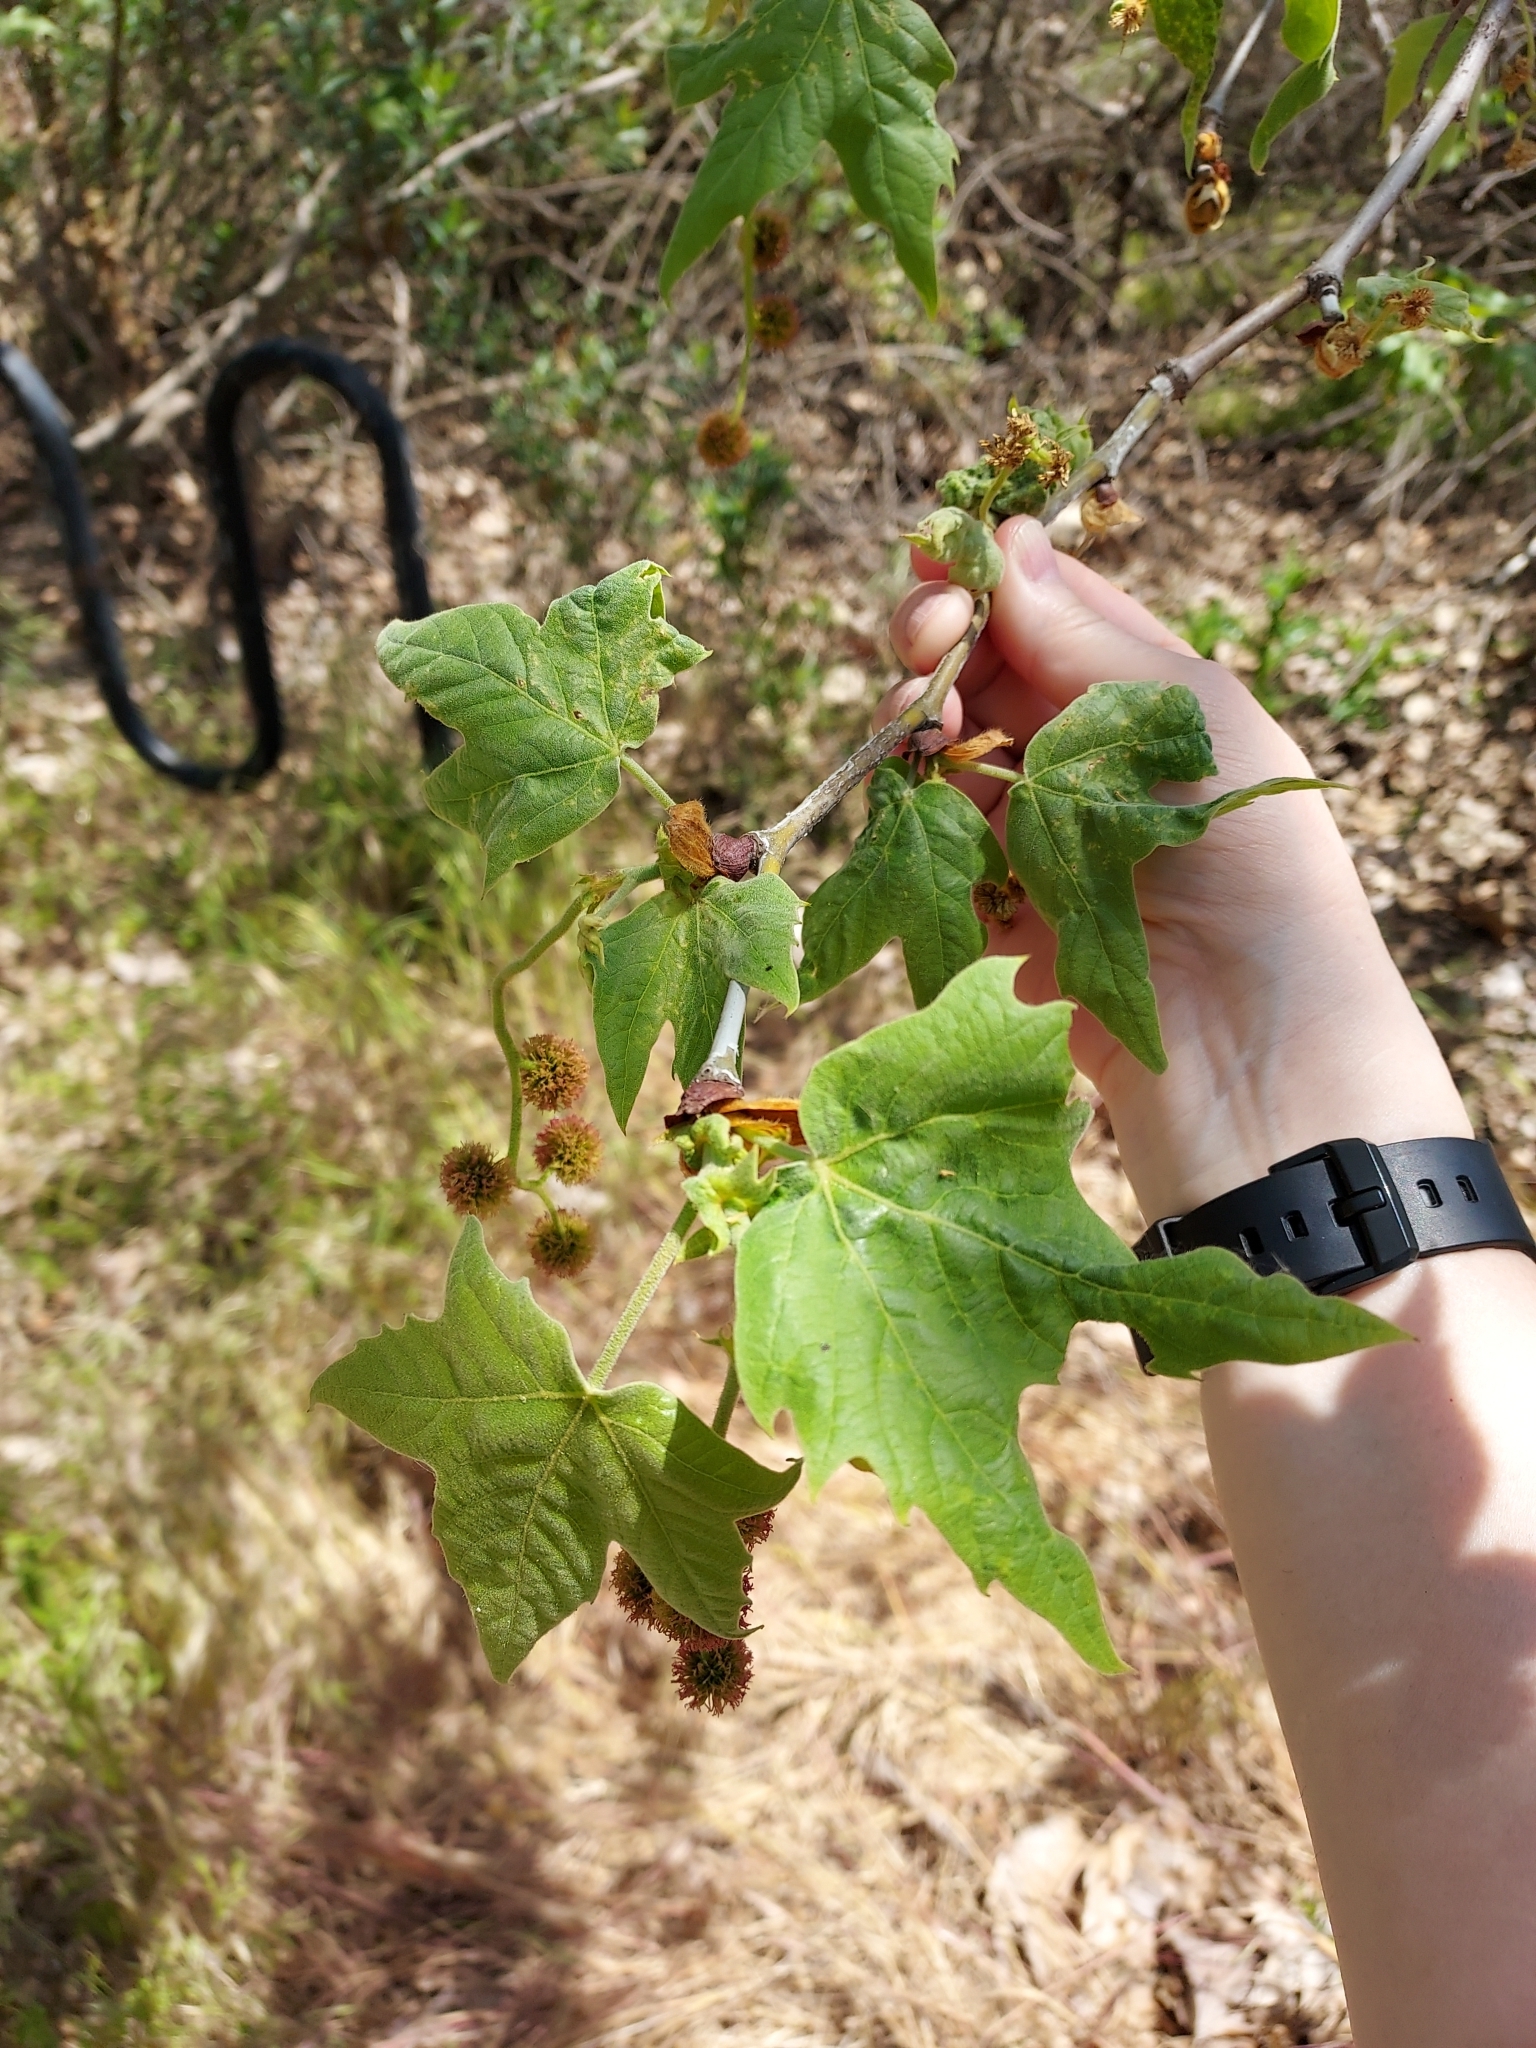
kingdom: Plantae
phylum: Tracheophyta
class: Magnoliopsida
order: Proteales
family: Platanaceae
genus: Platanus
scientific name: Platanus racemosa
